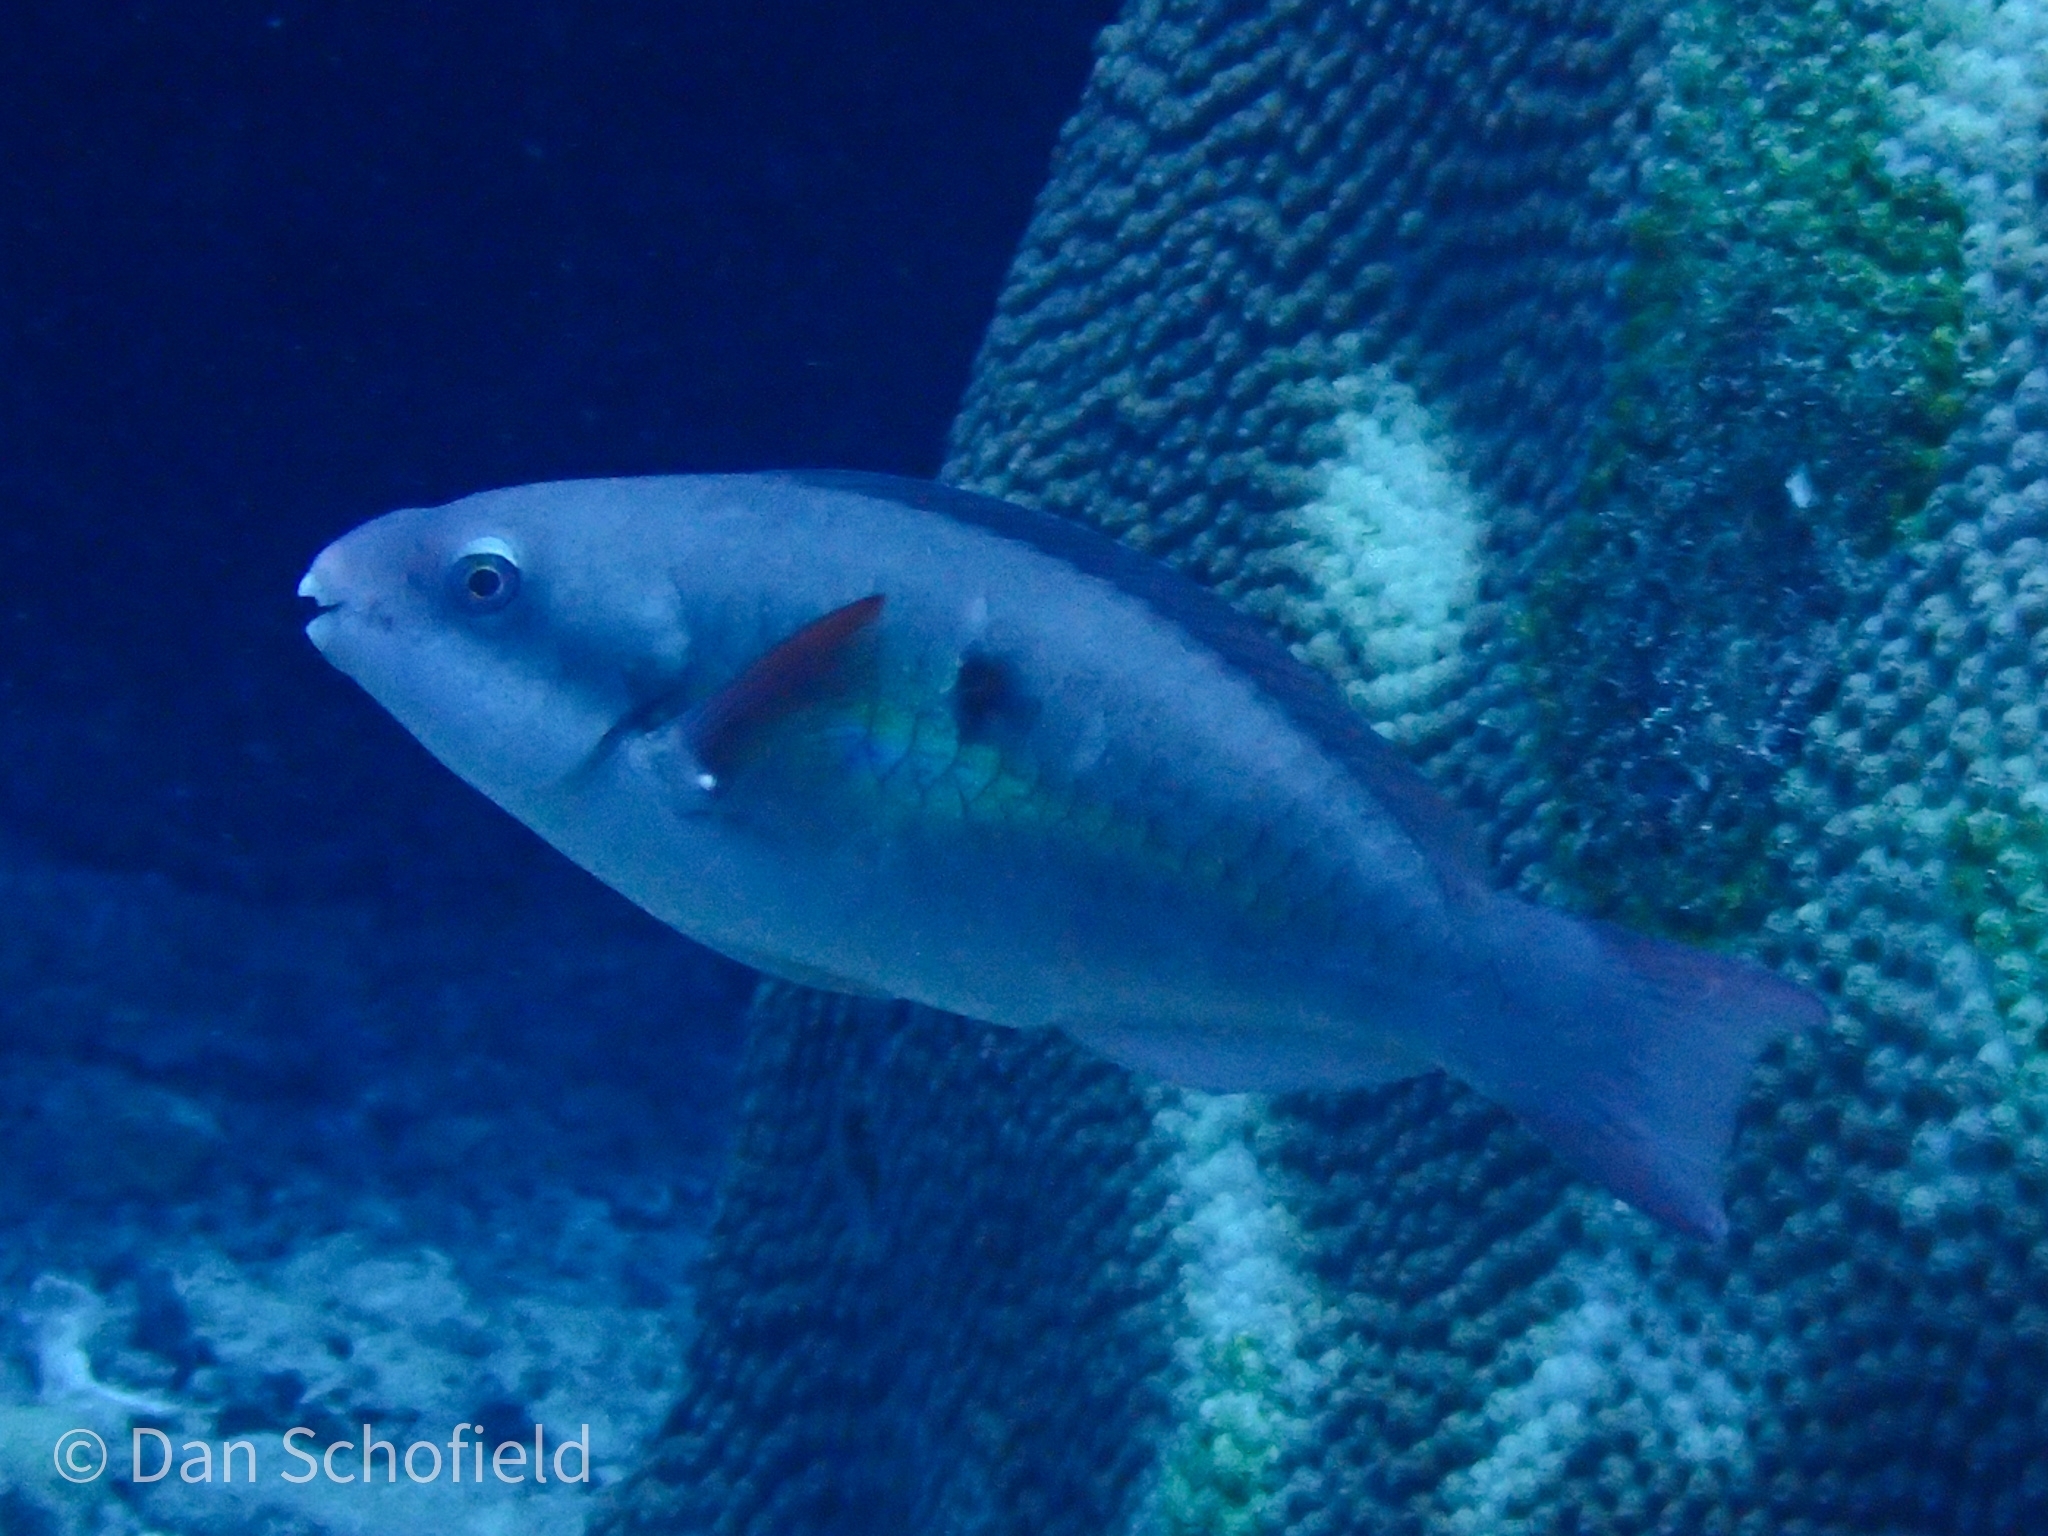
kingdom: Animalia
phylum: Chordata
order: Perciformes
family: Scaridae
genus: Scarus
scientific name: Scarus forsteni
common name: Forsten's parrotfish
